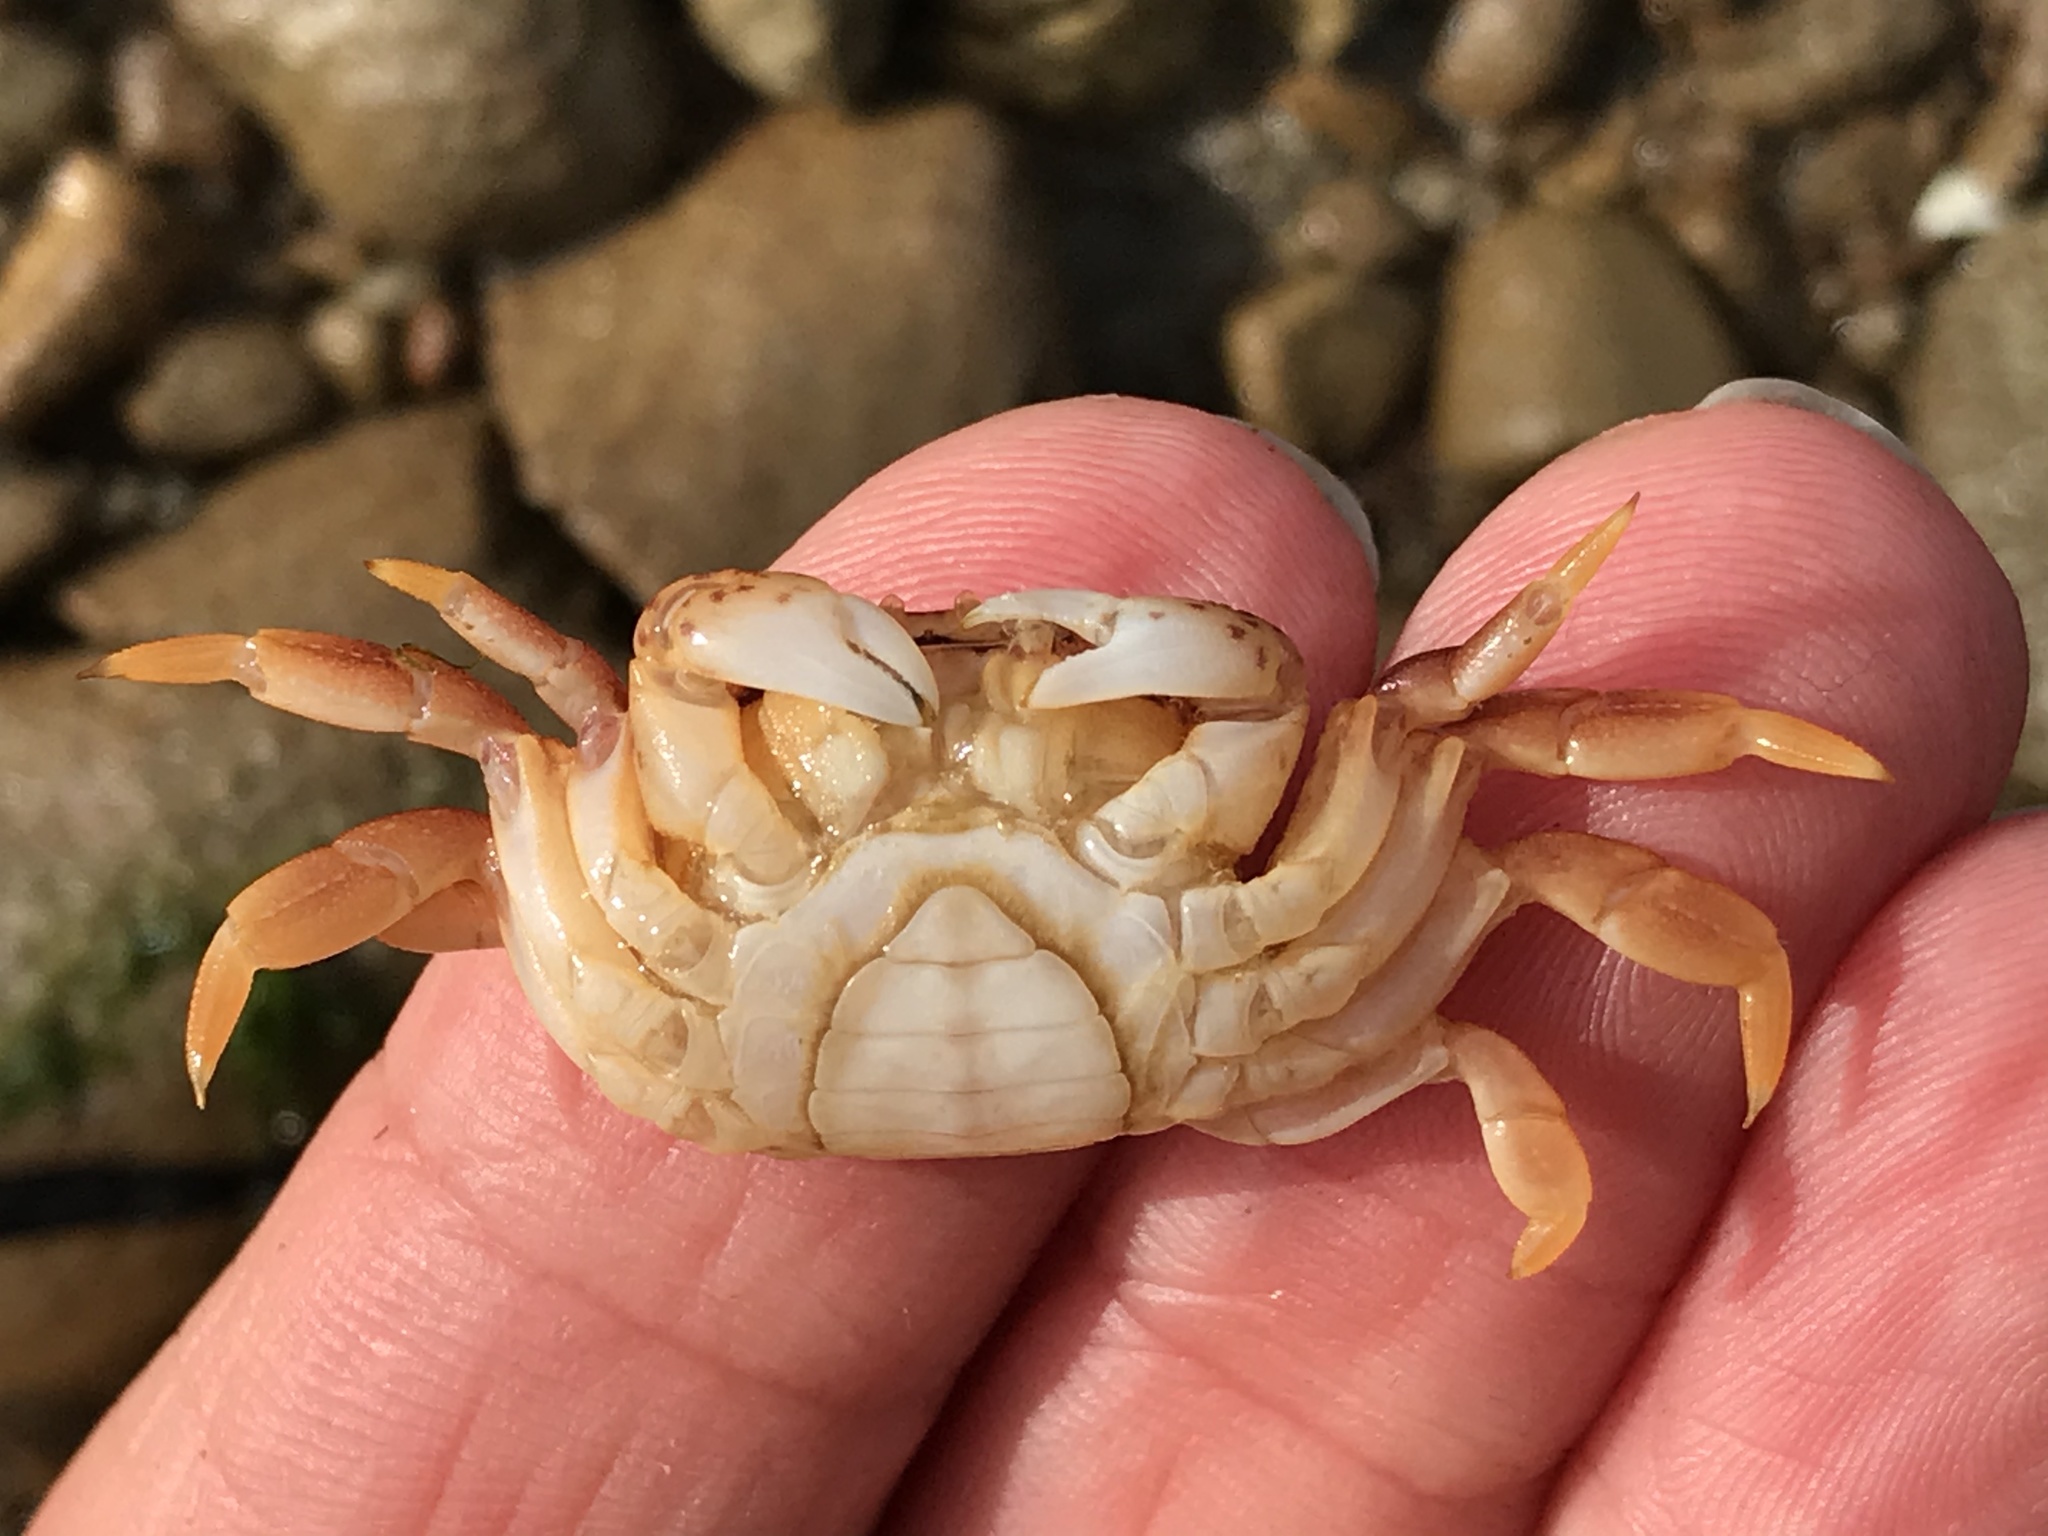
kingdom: Animalia
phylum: Arthropoda
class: Malacostraca
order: Decapoda
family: Varunidae
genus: Hemigrapsus
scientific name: Hemigrapsus nudus
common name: Purple shore crab
